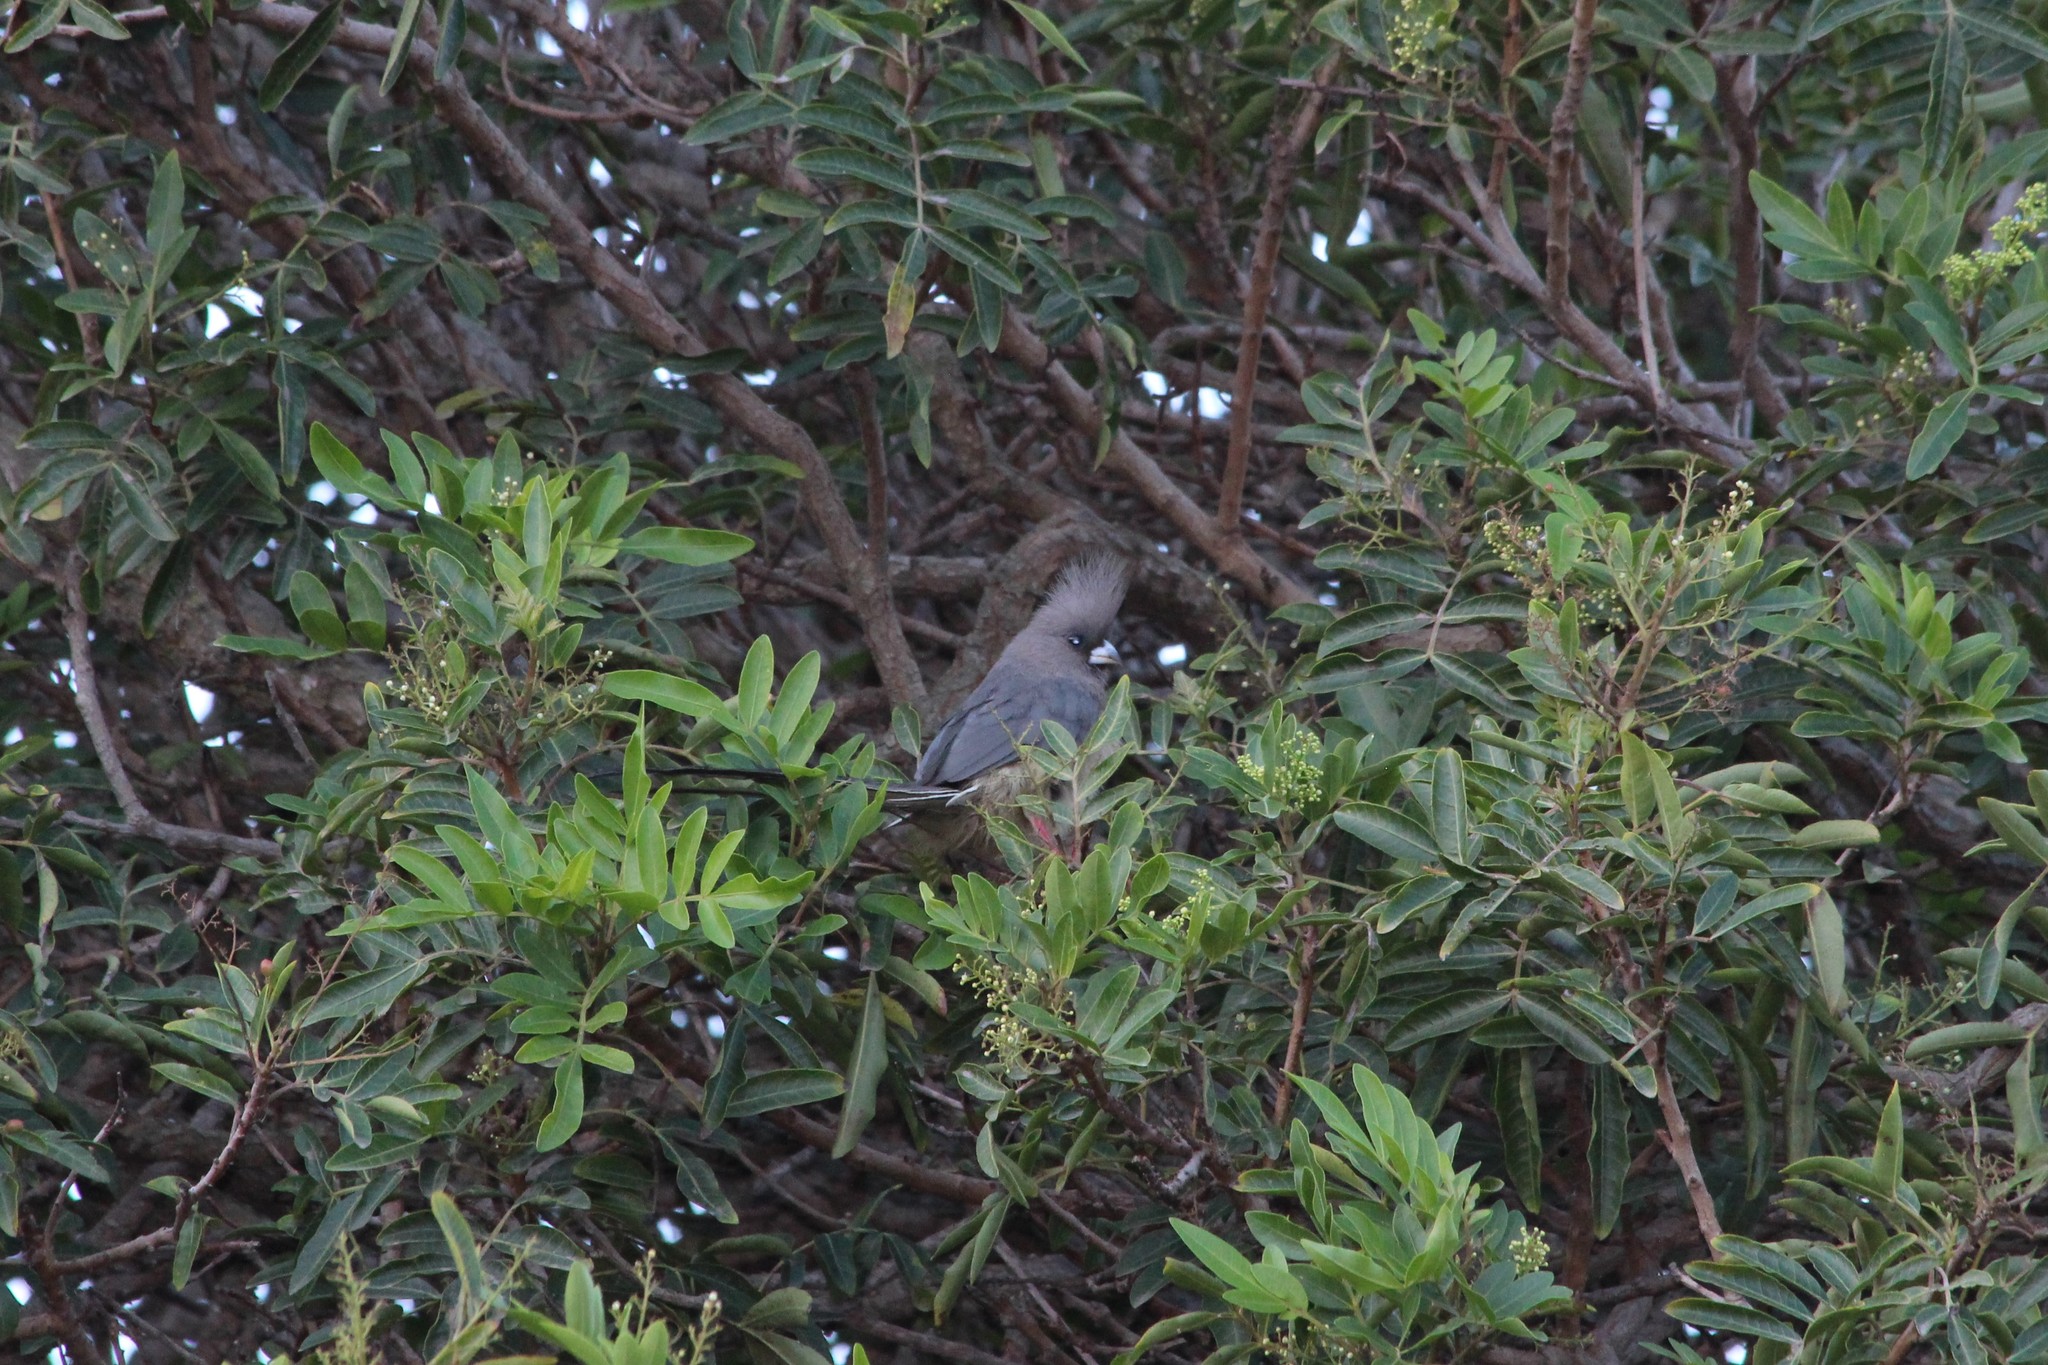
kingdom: Animalia
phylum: Chordata
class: Aves
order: Coliiformes
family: Coliidae
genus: Colius
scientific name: Colius colius
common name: White-backed mousebird
